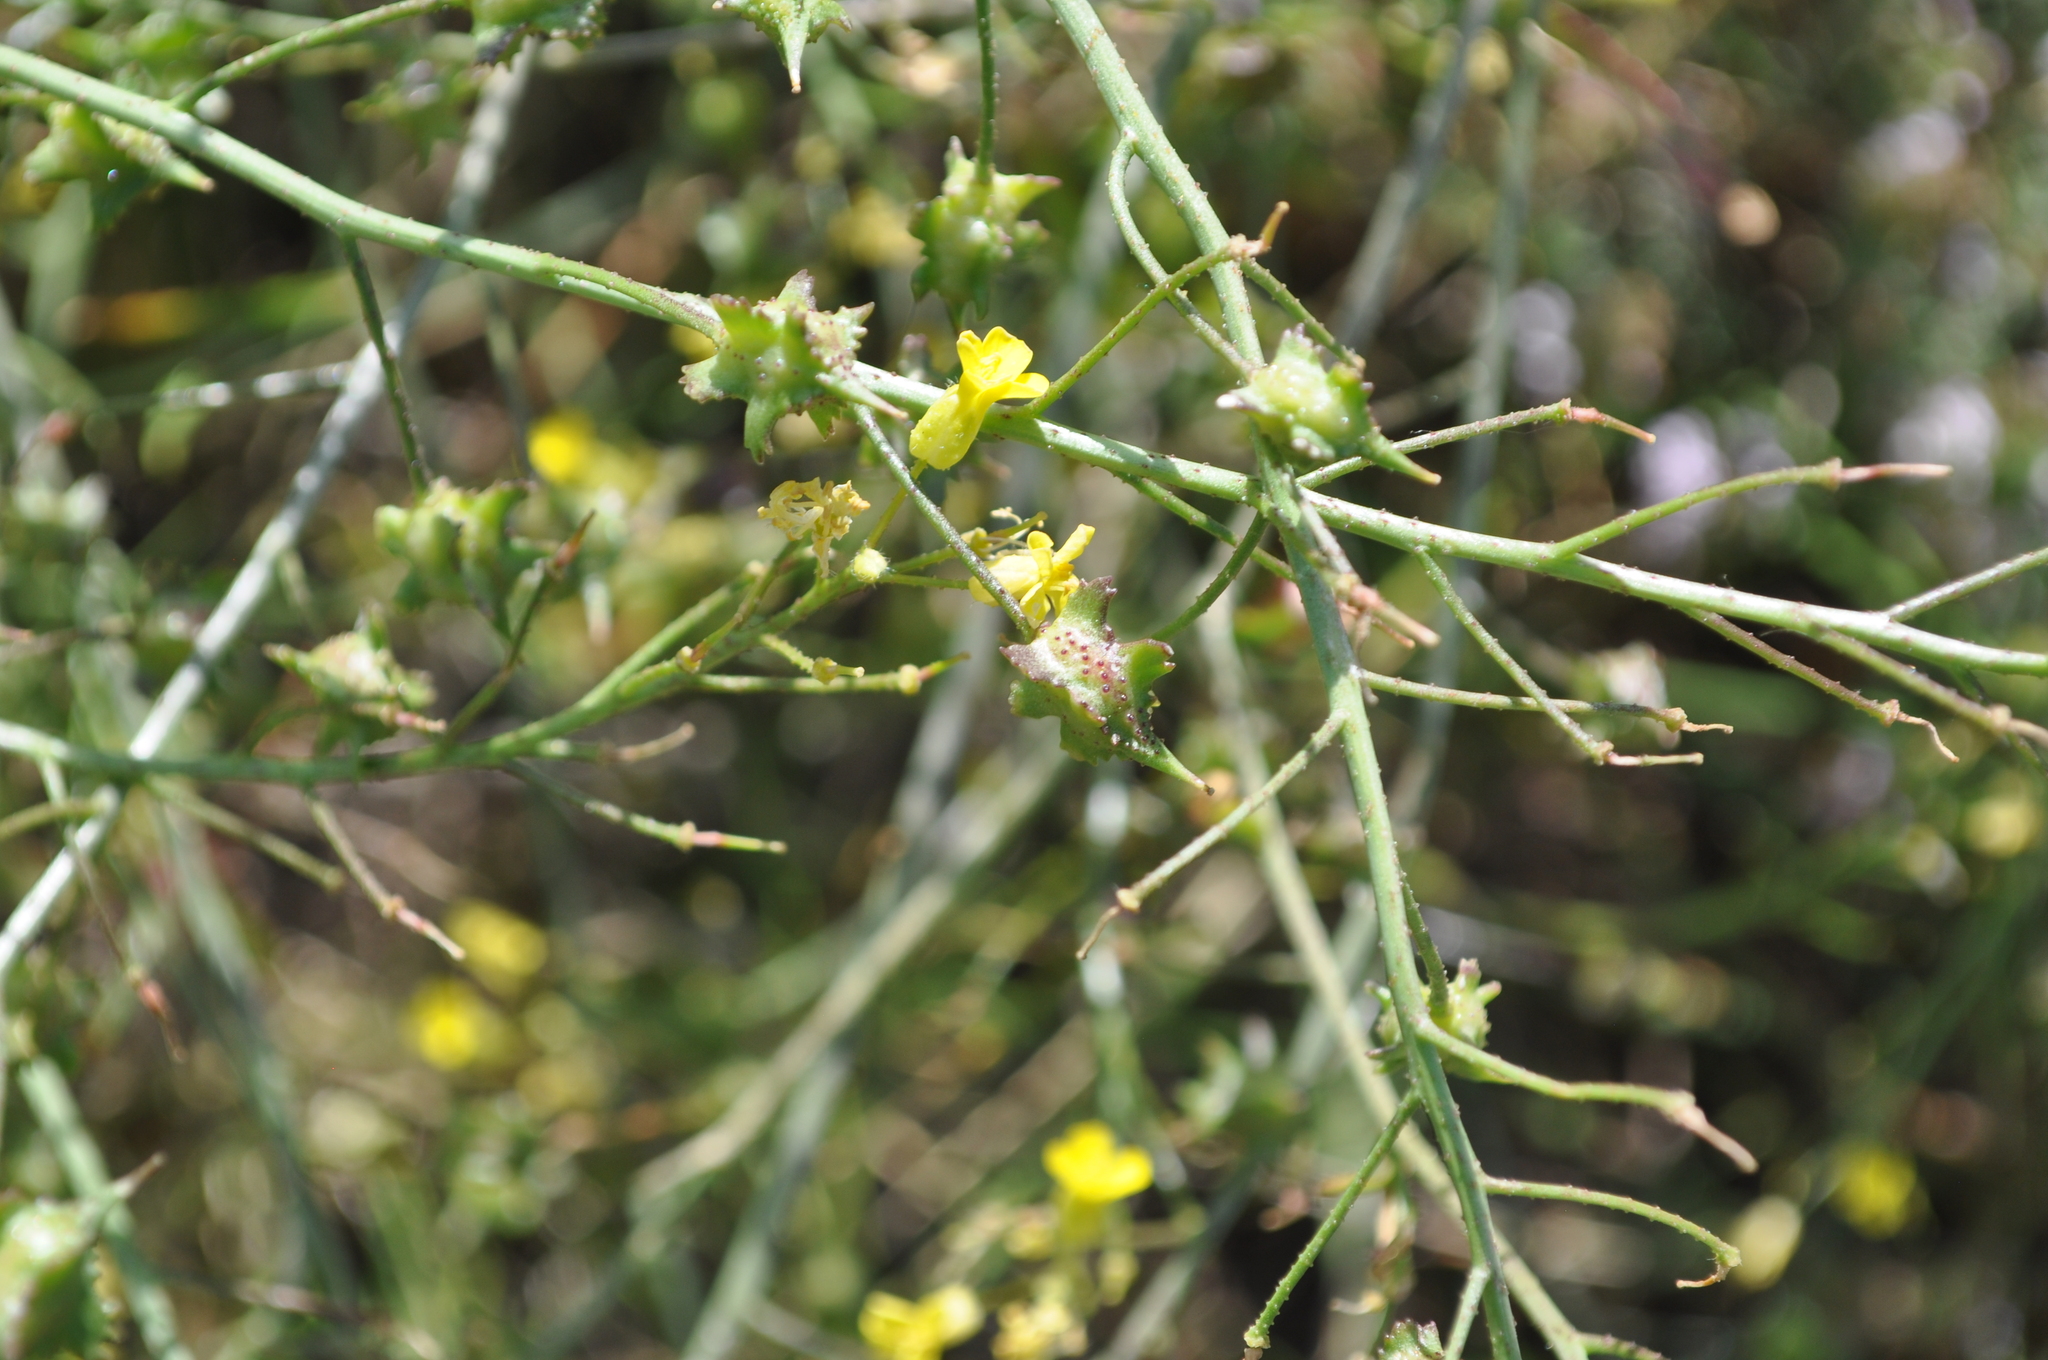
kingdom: Plantae
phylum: Tracheophyta
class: Magnoliopsida
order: Brassicales
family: Brassicaceae
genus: Bunias
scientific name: Bunias erucago
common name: Southern warty-cabbage
